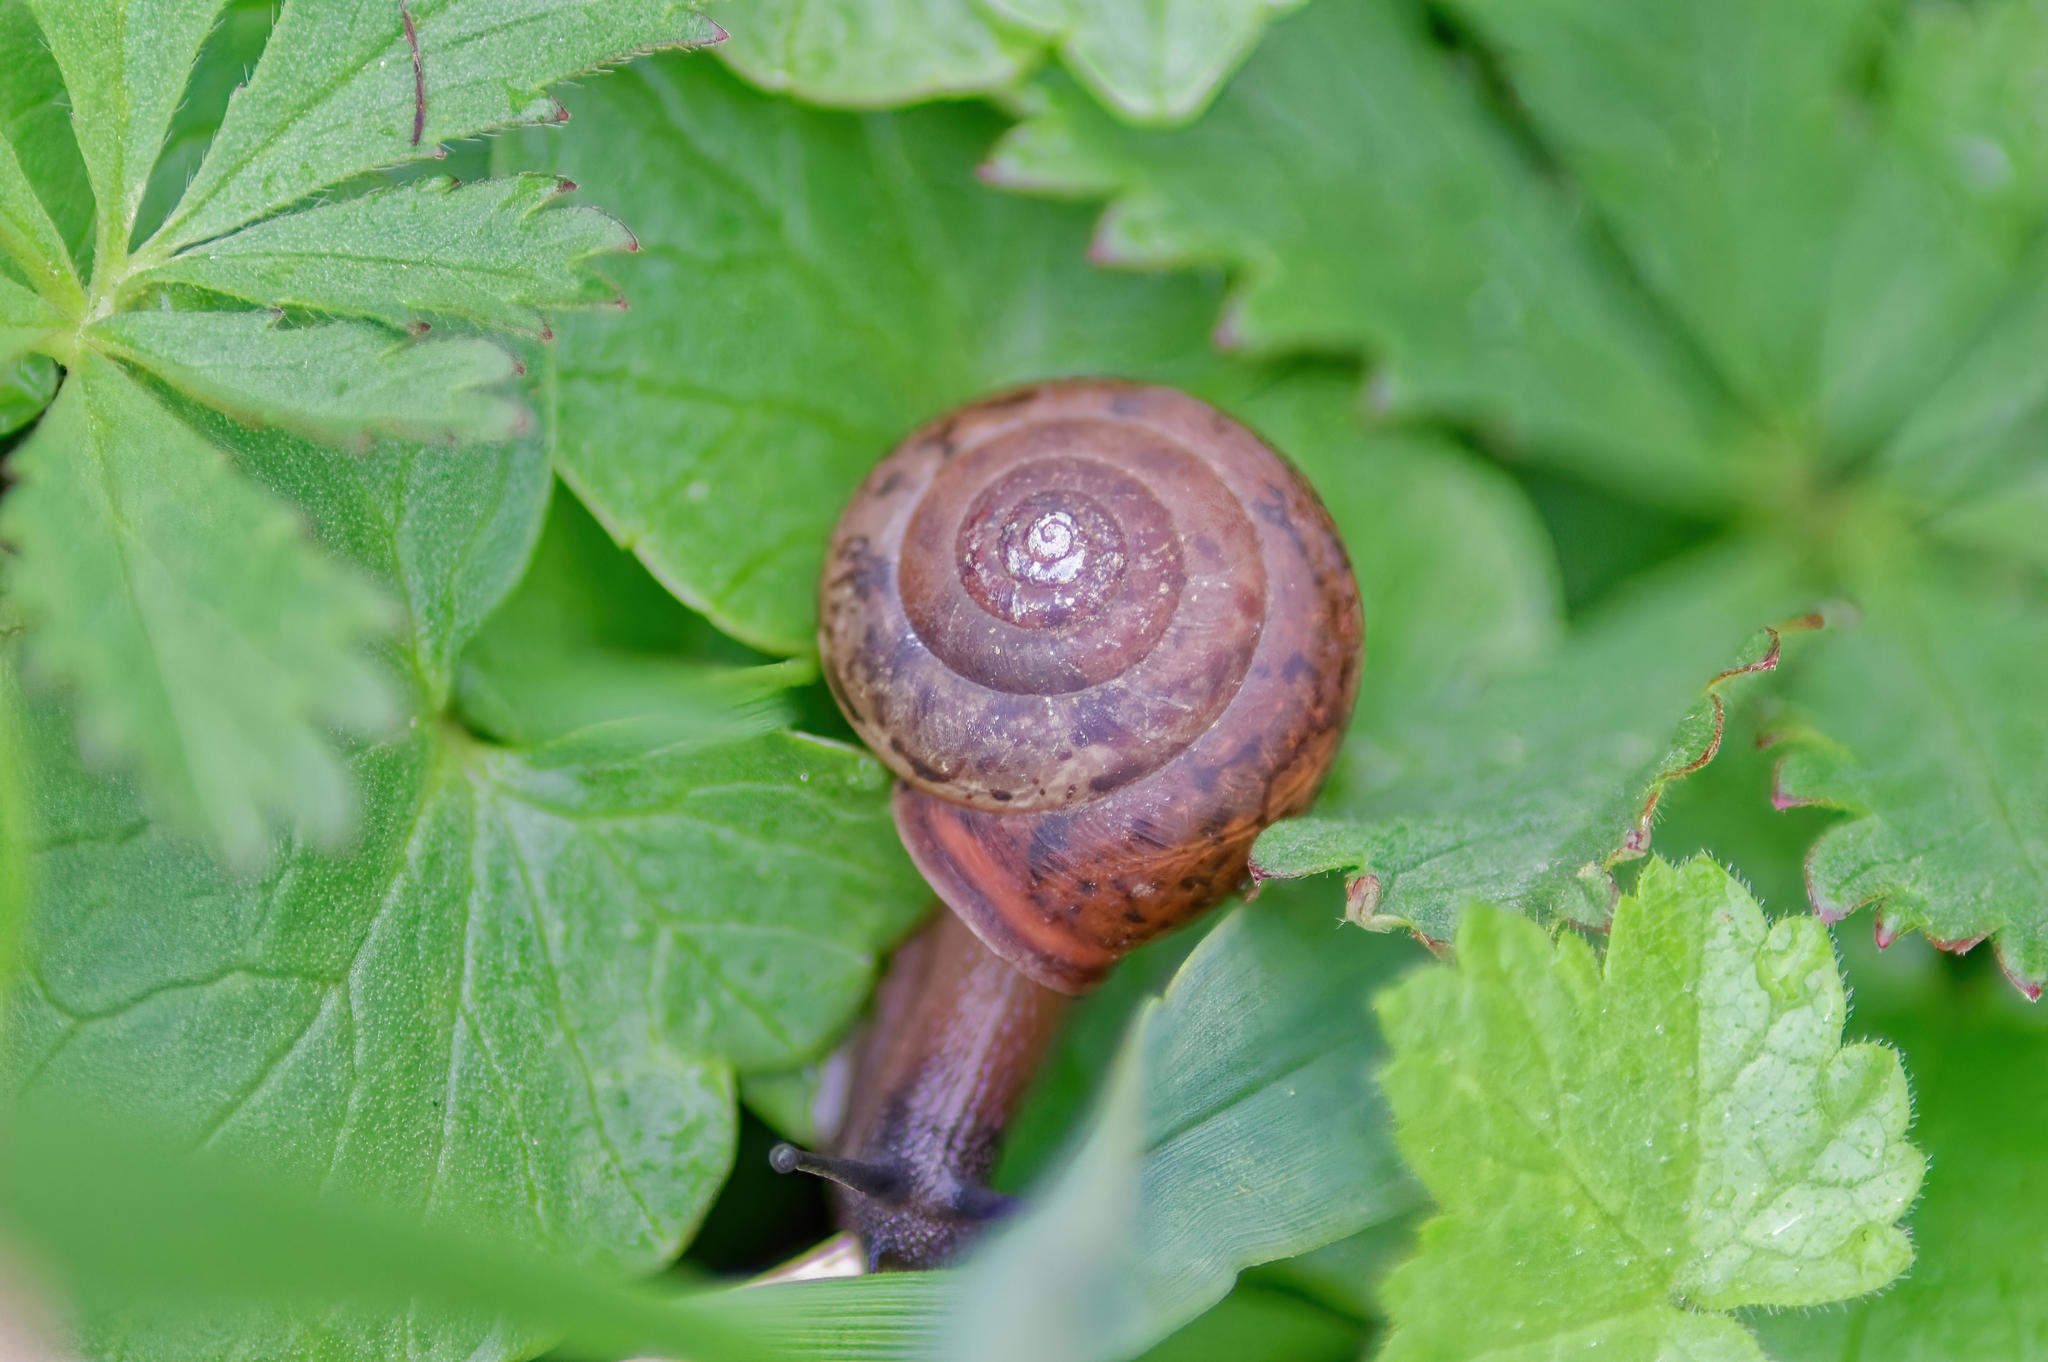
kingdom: Animalia
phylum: Mollusca
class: Gastropoda
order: Stylommatophora
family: Hygromiidae
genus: Monachoides
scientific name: Monachoides incarnatus
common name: Incarnate snail
